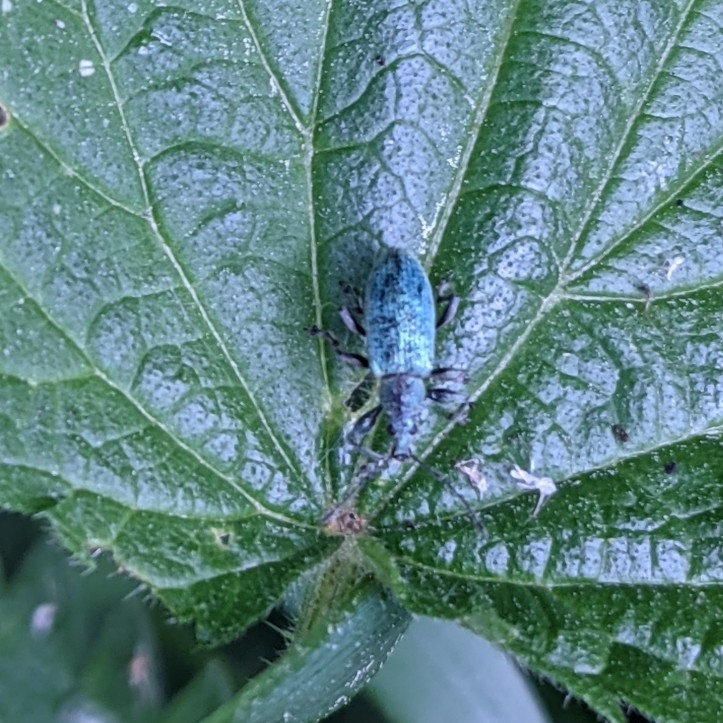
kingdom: Animalia
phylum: Arthropoda
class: Insecta
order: Coleoptera
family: Curculionidae
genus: Phyllobius
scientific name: Phyllobius pomaceus
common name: Green nettle weevil
